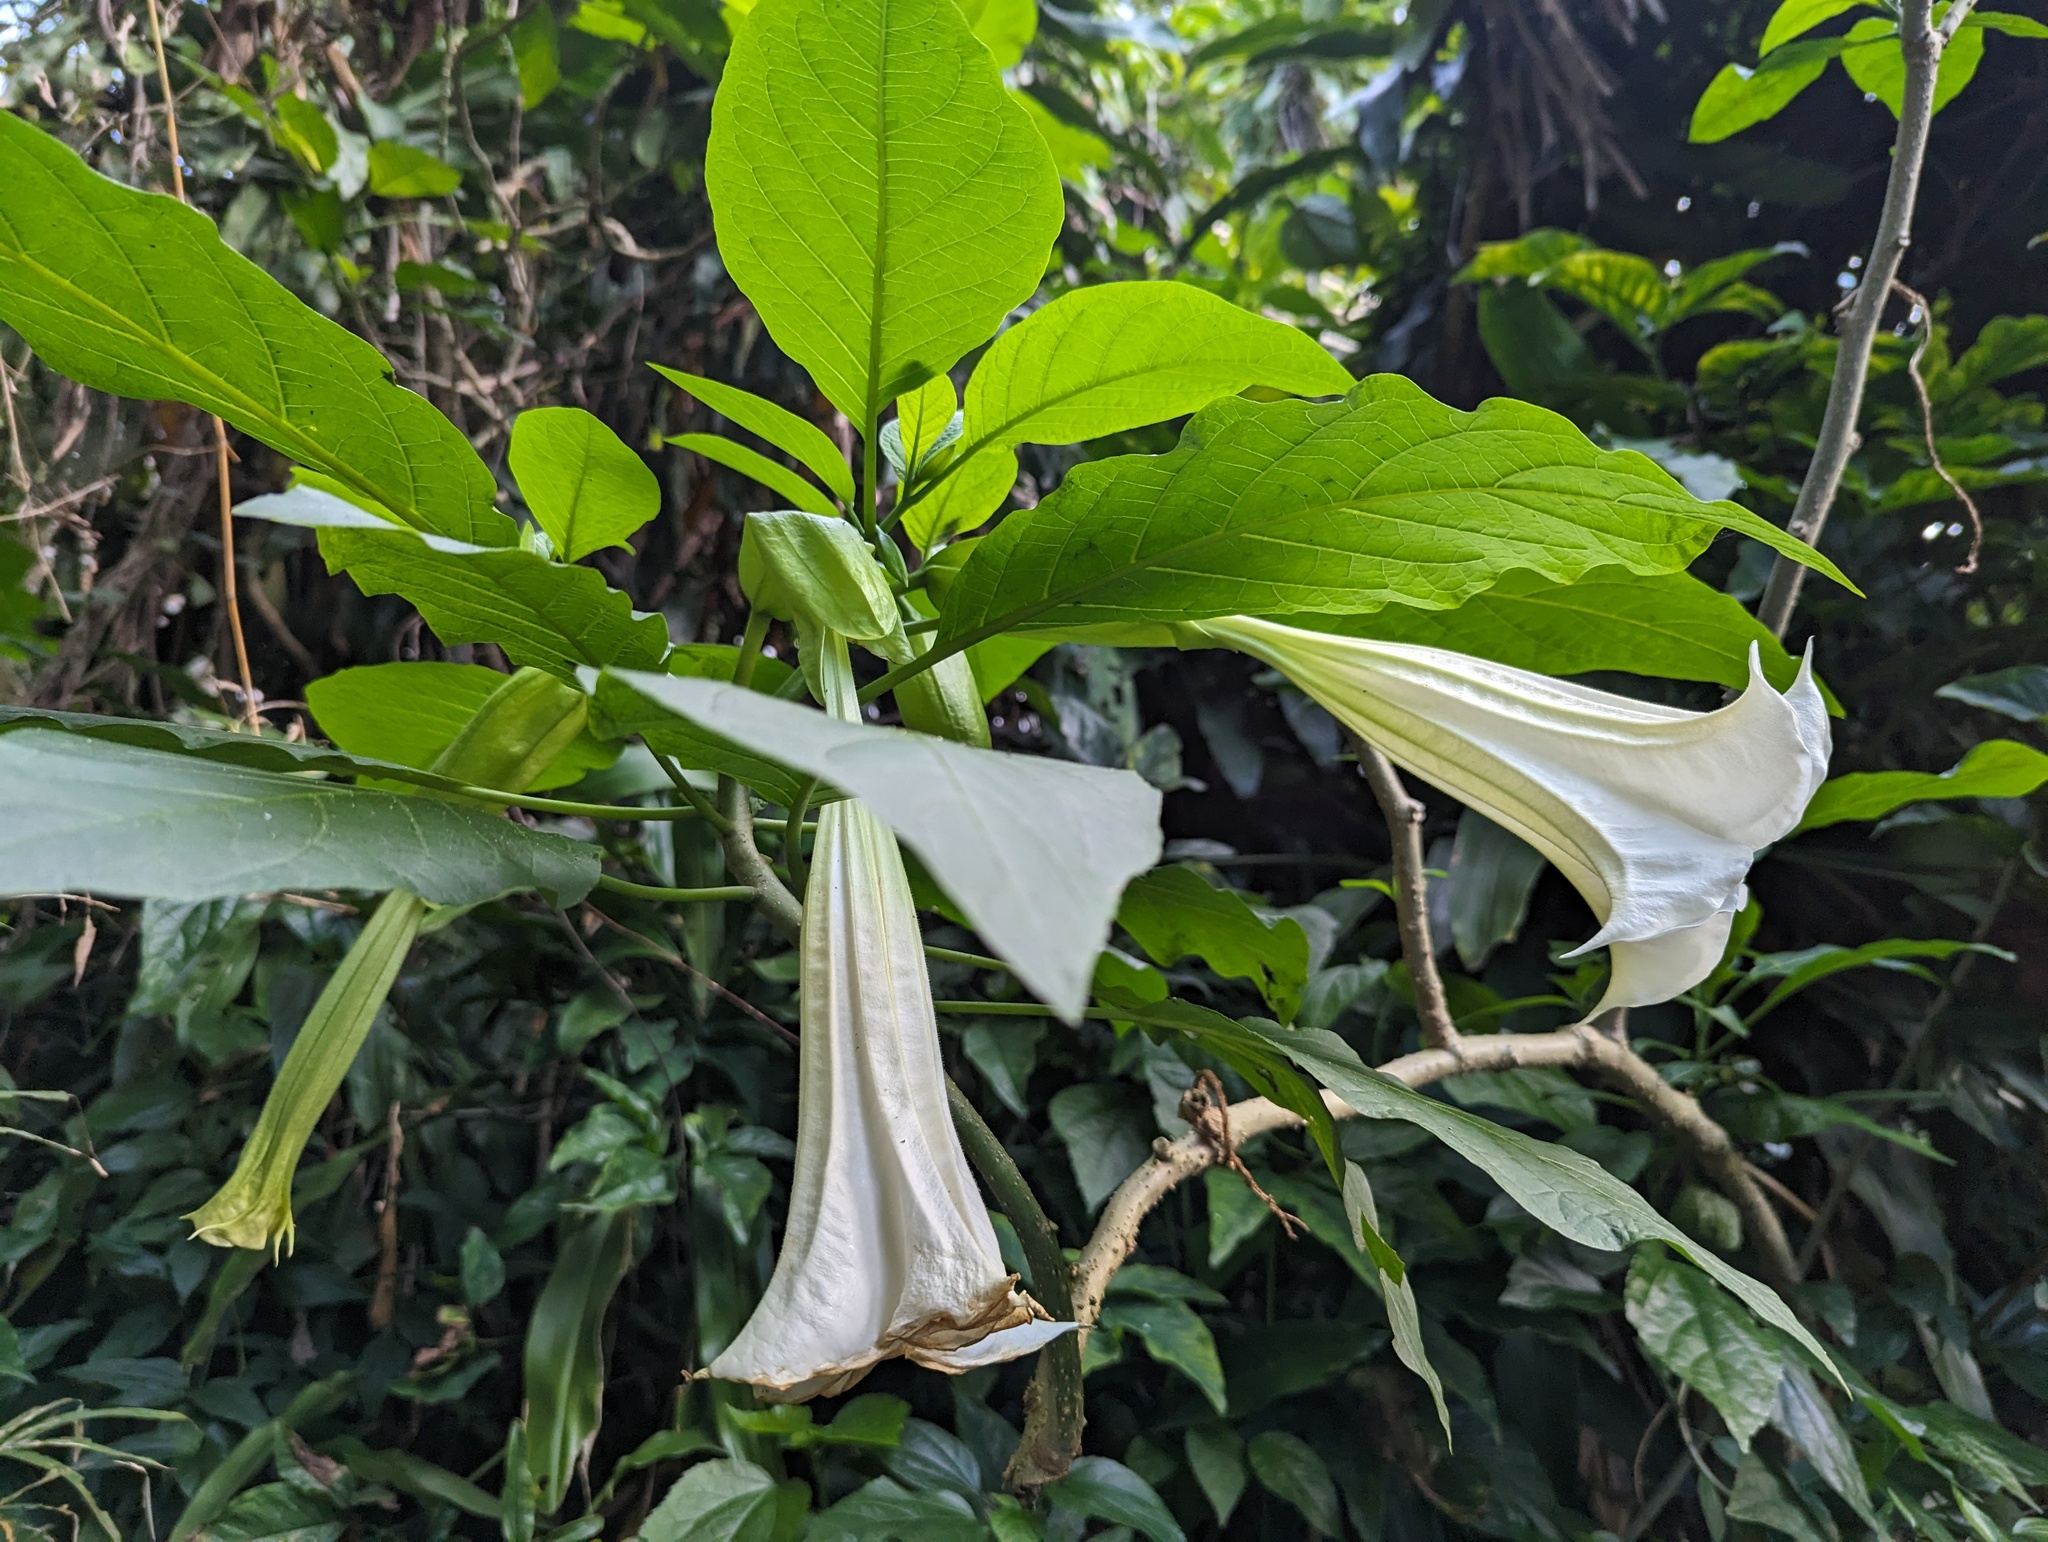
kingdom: Plantae
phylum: Tracheophyta
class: Magnoliopsida
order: Solanales
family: Solanaceae
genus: Brugmansia
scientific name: Brugmansia suaveolens
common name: Angel's tears
